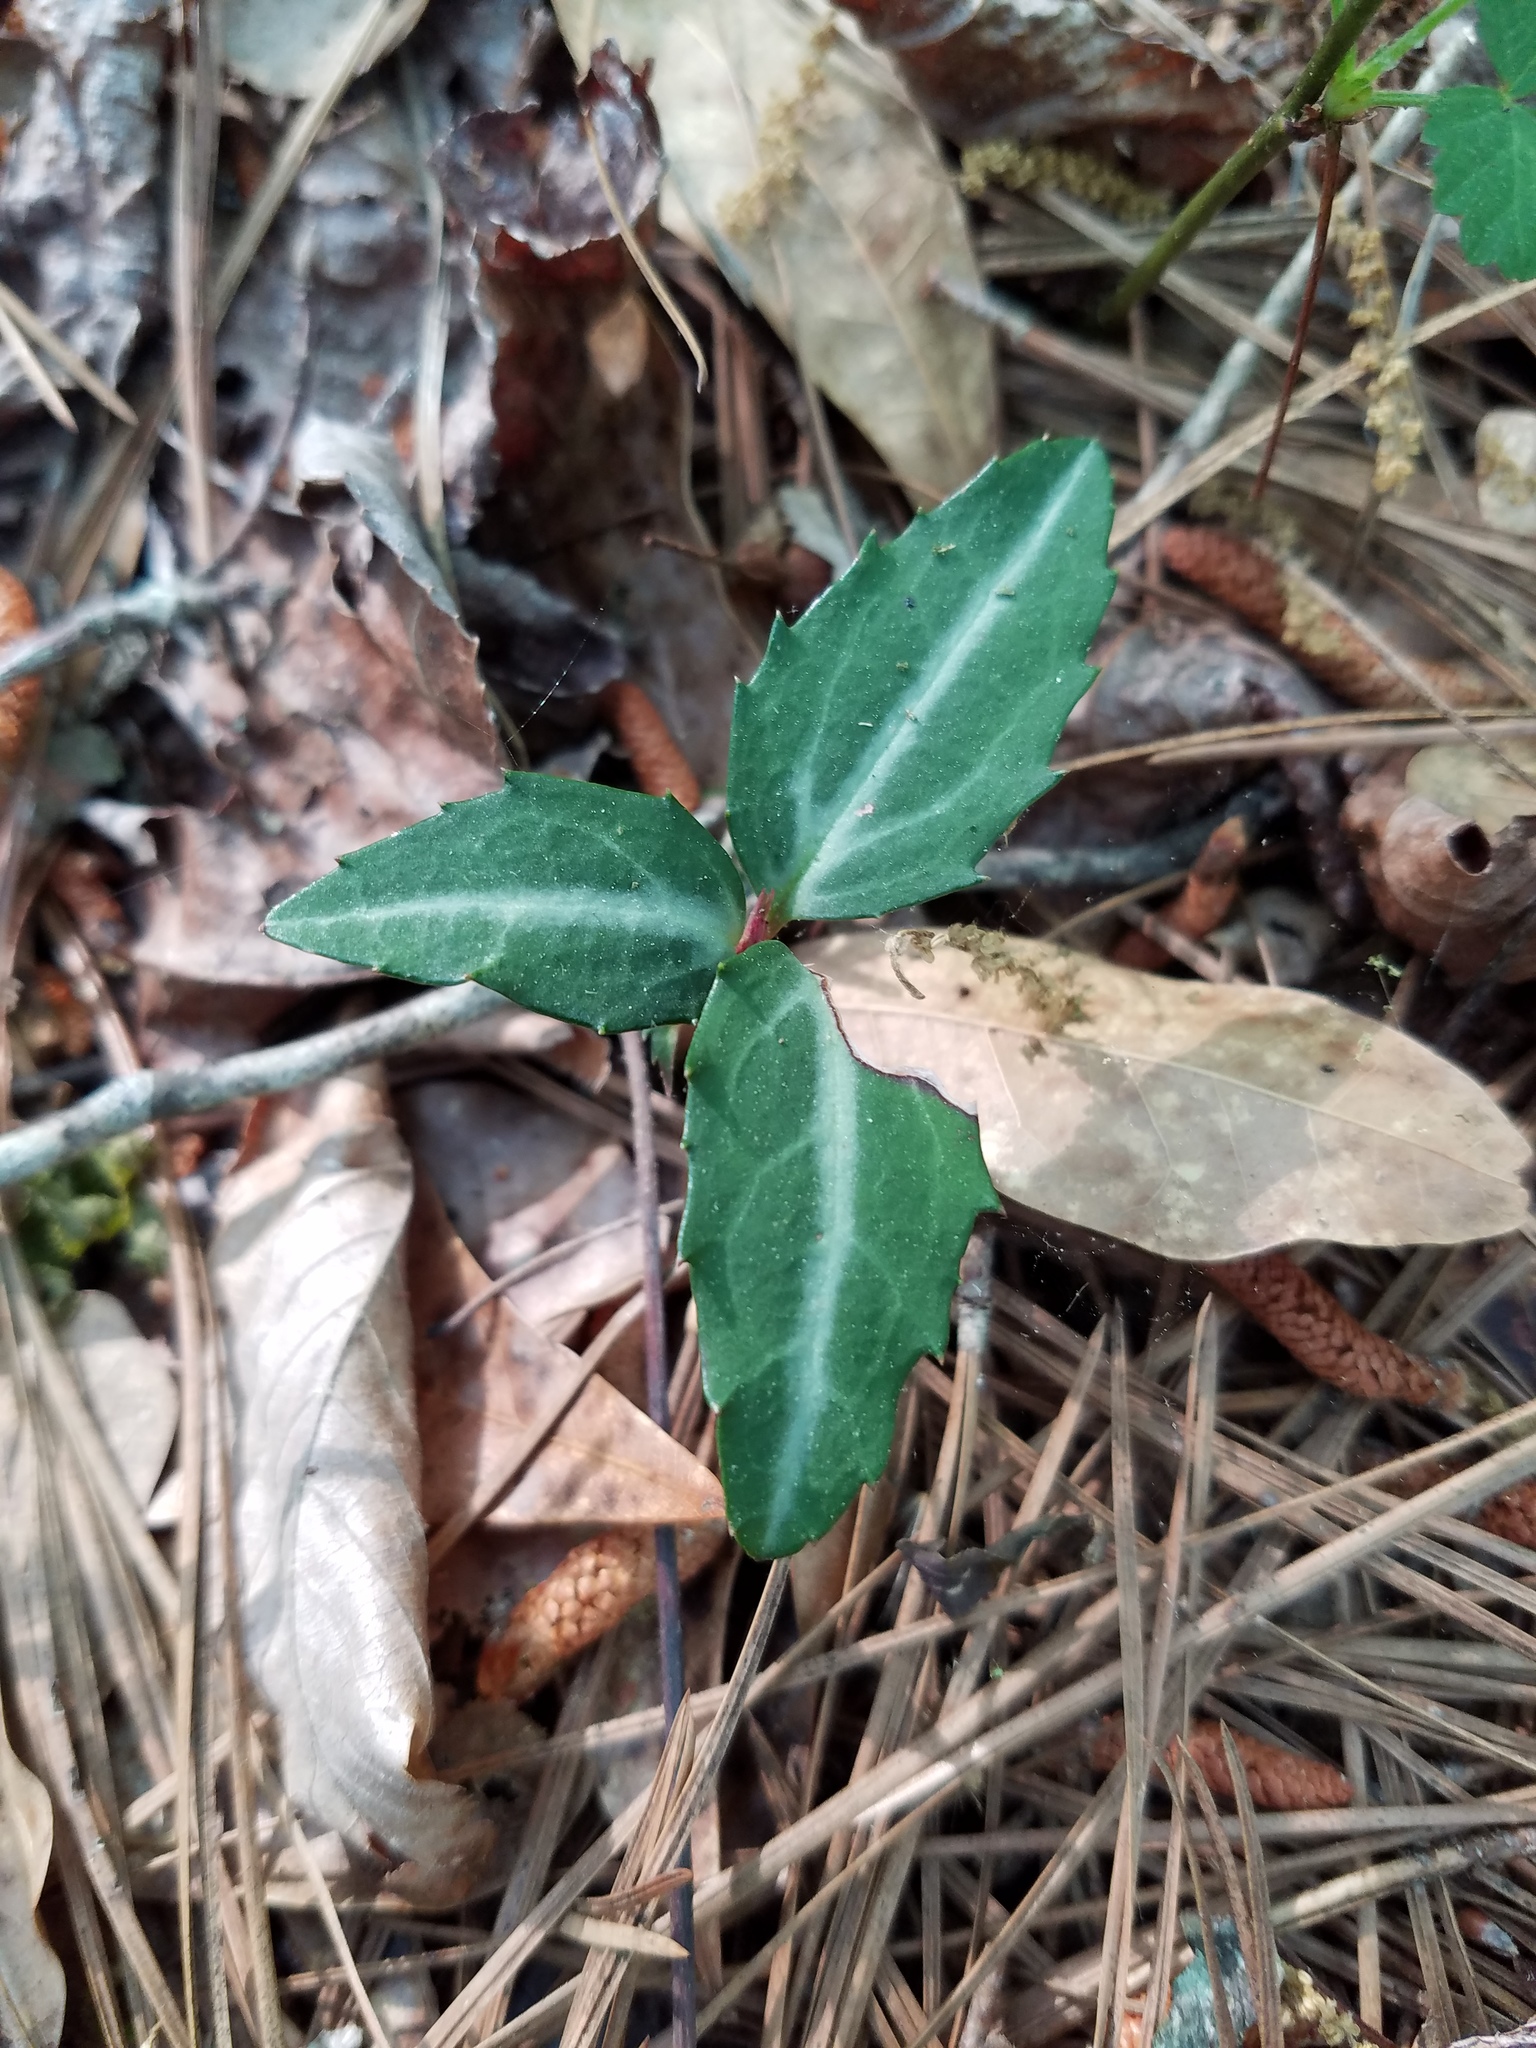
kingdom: Plantae
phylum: Tracheophyta
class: Magnoliopsida
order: Ericales
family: Ericaceae
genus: Chimaphila
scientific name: Chimaphila maculata
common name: Spotted pipsissewa
